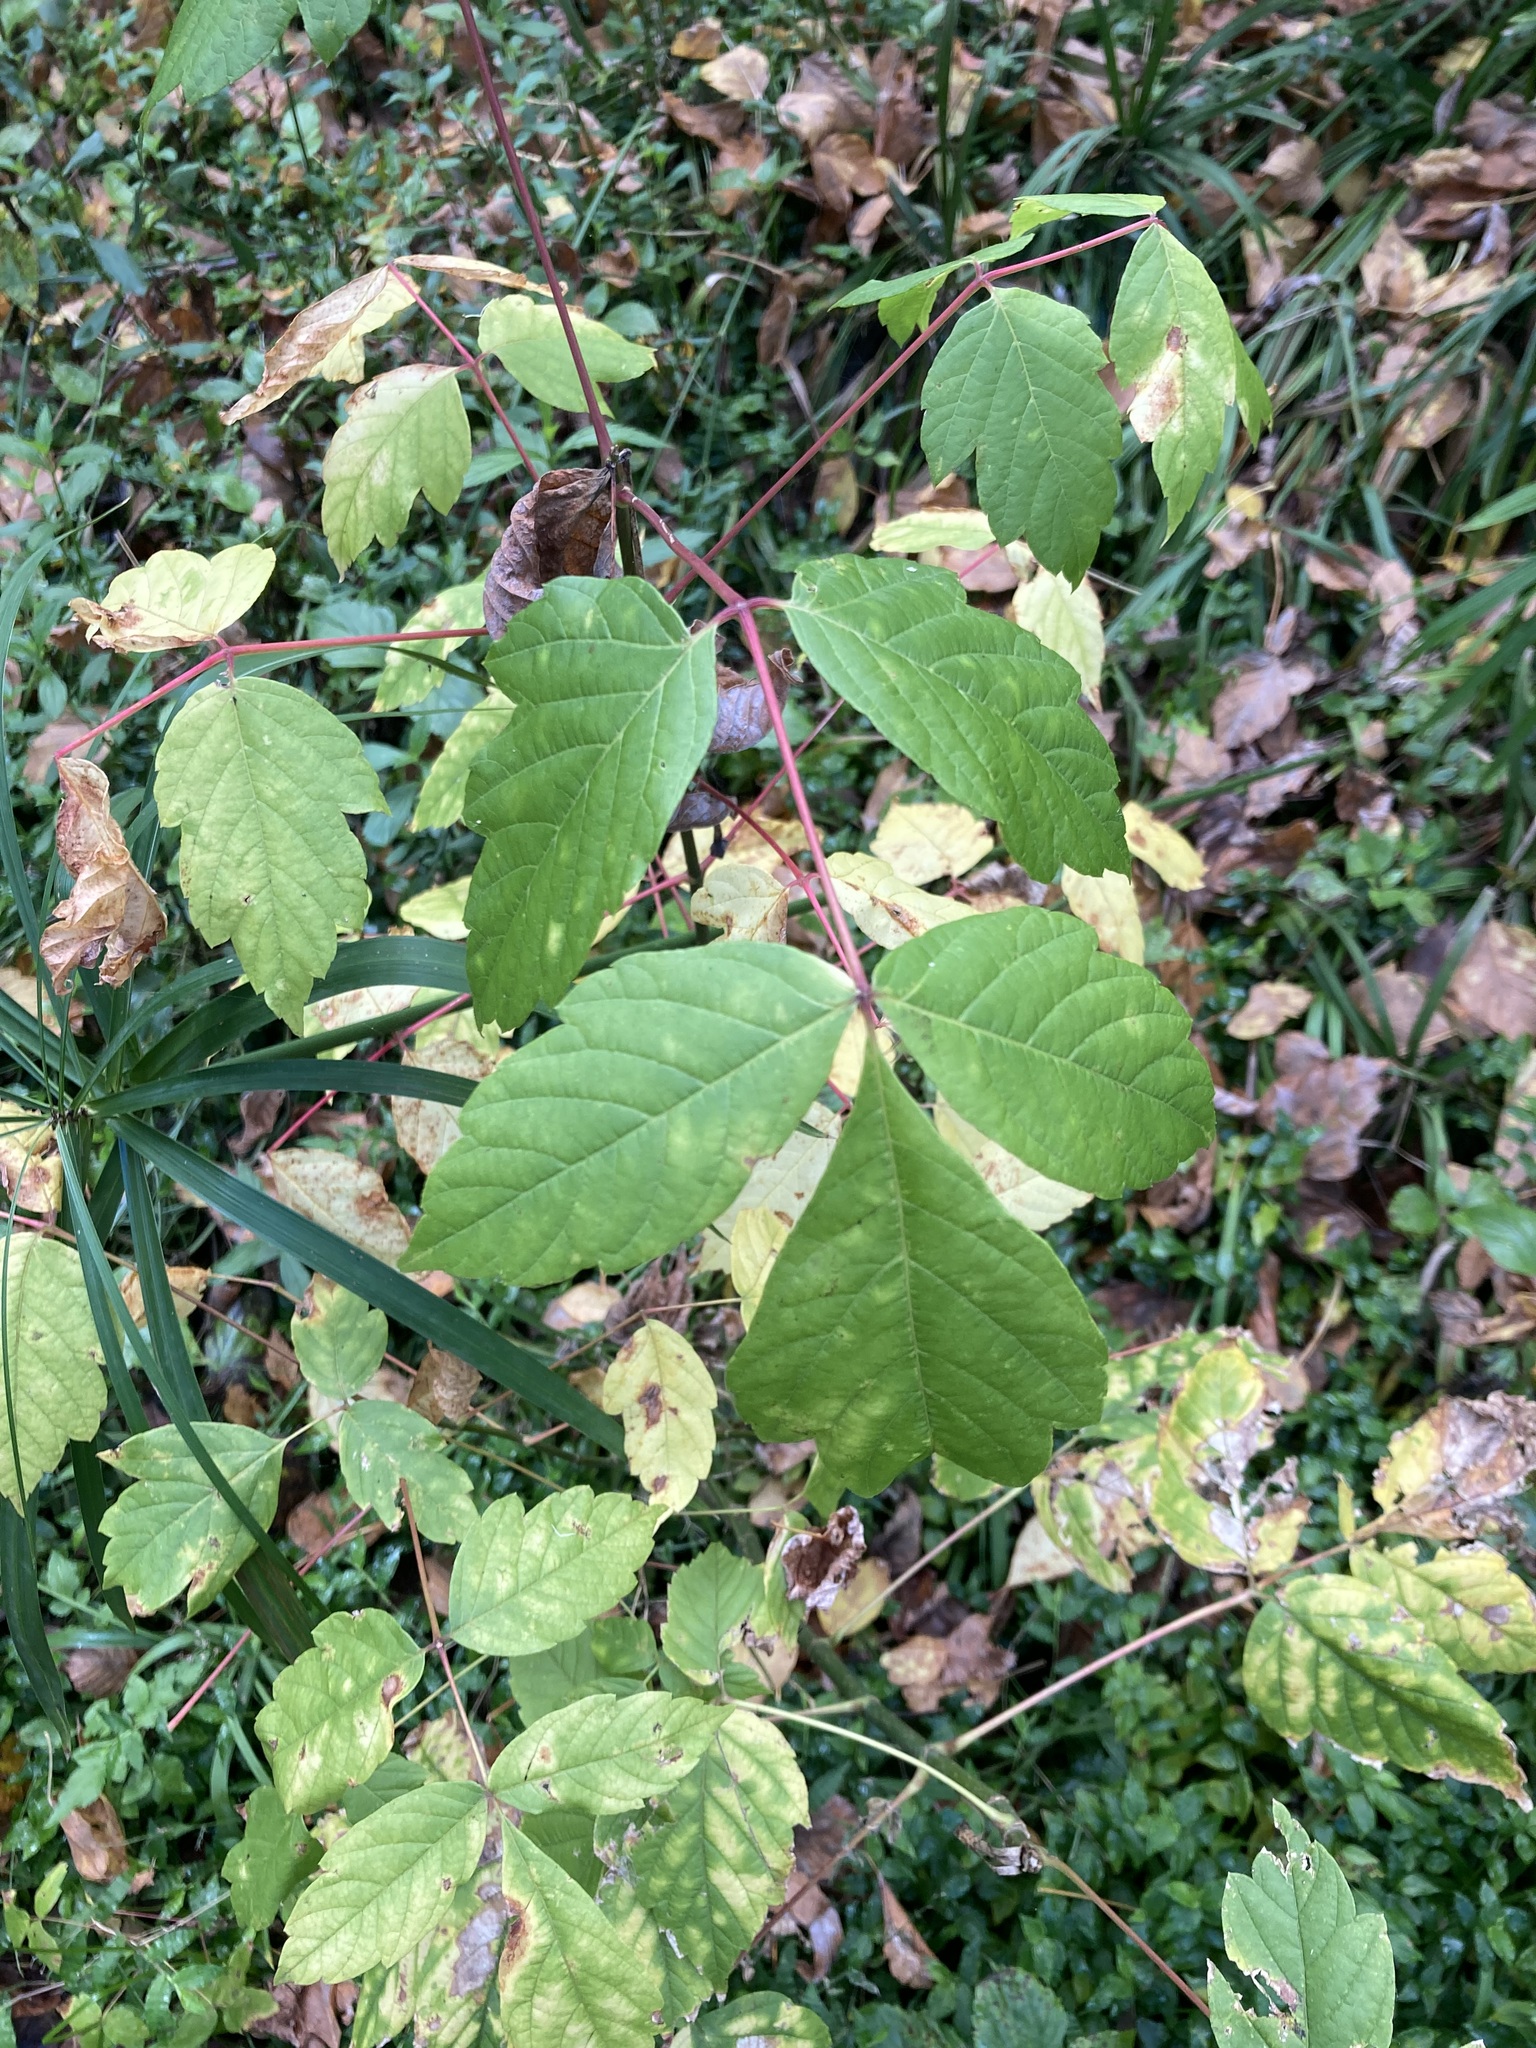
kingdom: Plantae
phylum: Tracheophyta
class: Magnoliopsida
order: Sapindales
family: Sapindaceae
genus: Acer
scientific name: Acer negundo
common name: Ashleaf maple
